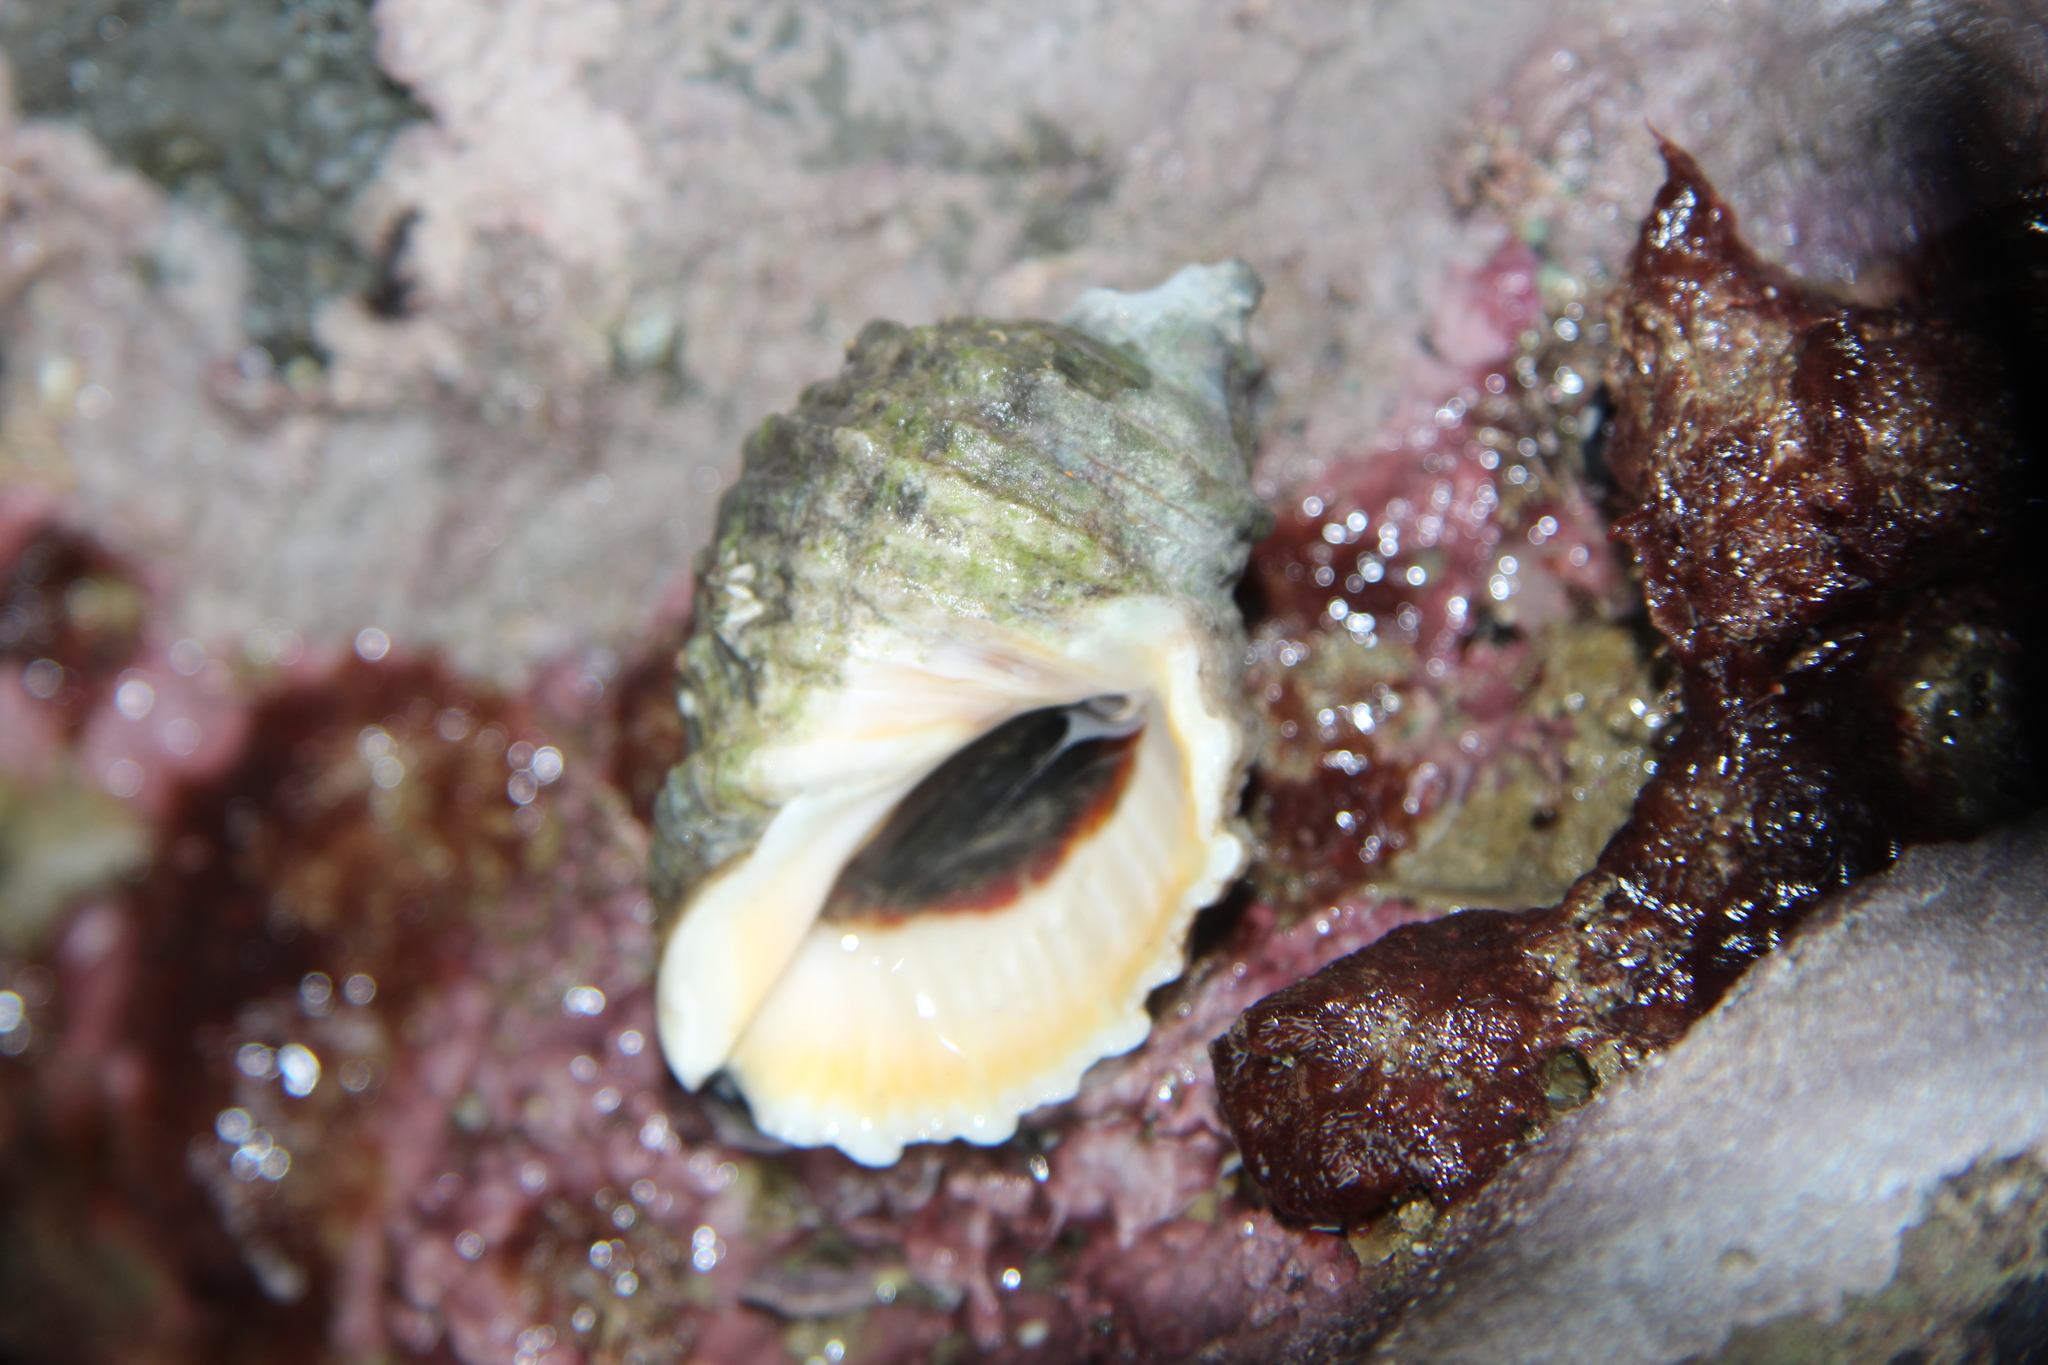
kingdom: Animalia
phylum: Mollusca
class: Gastropoda
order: Neogastropoda
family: Muricidae
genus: Dicathais
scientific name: Dicathais orbita
